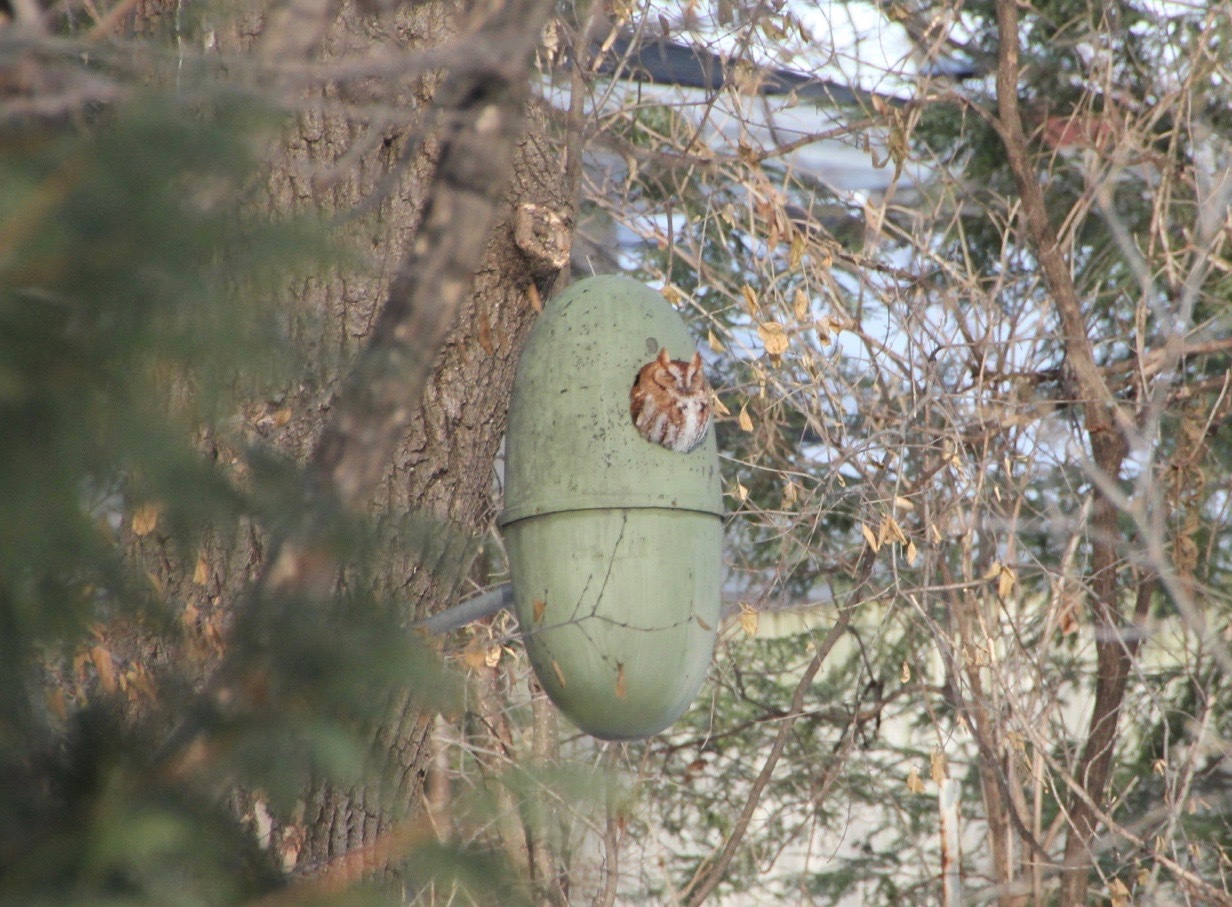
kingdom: Animalia
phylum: Chordata
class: Aves
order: Strigiformes
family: Strigidae
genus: Megascops
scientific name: Megascops asio
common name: Eastern screech-owl
